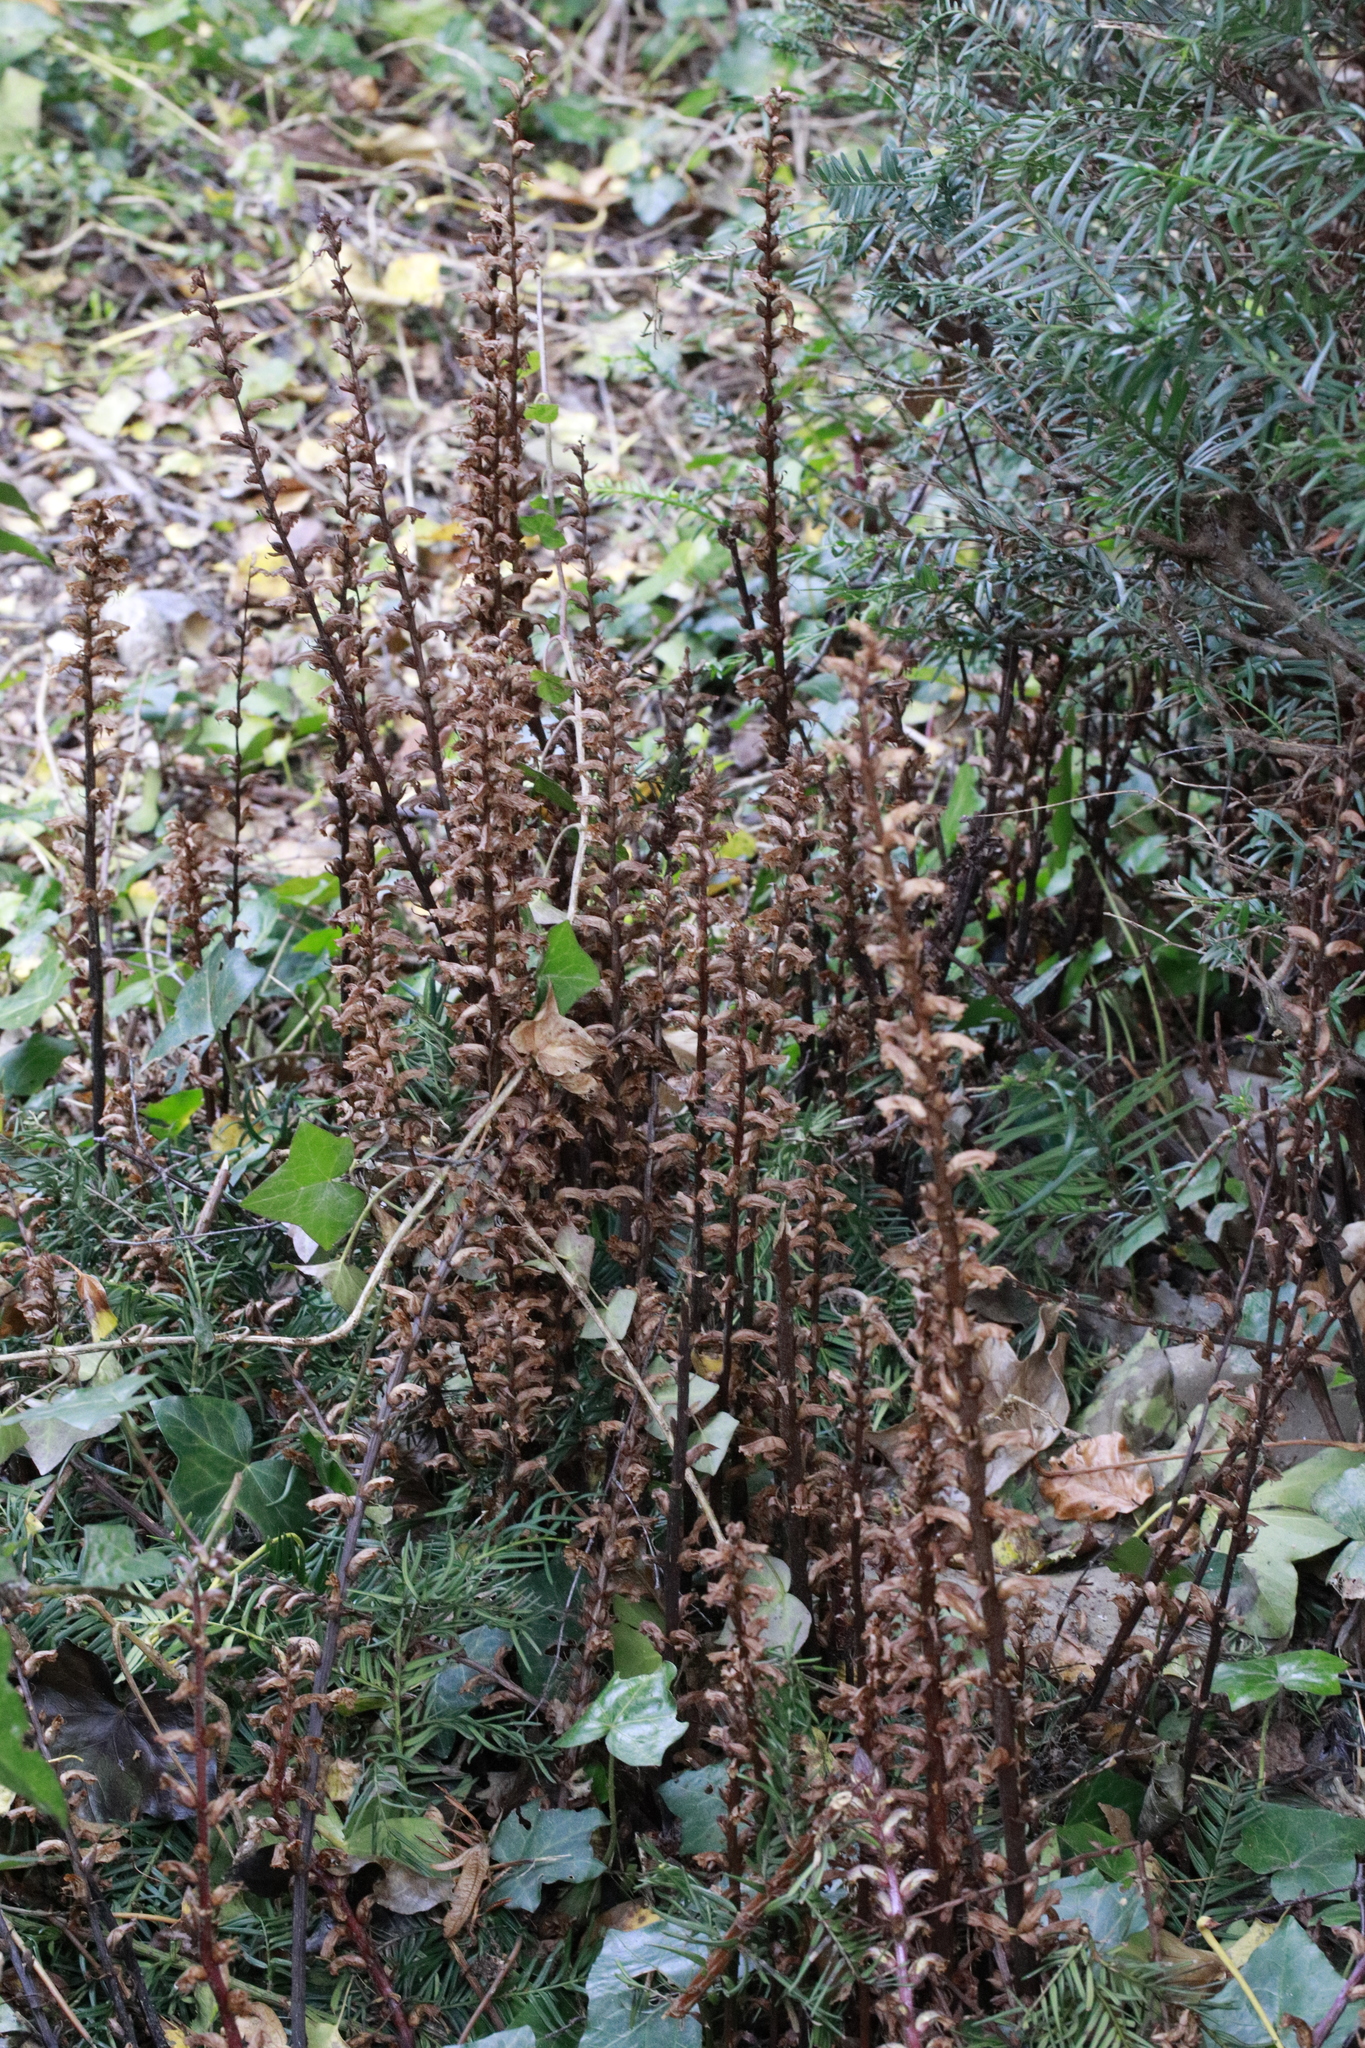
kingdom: Plantae
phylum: Tracheophyta
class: Magnoliopsida
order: Lamiales
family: Orobanchaceae
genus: Orobanche
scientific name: Orobanche hederae
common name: Ivy broomrape
